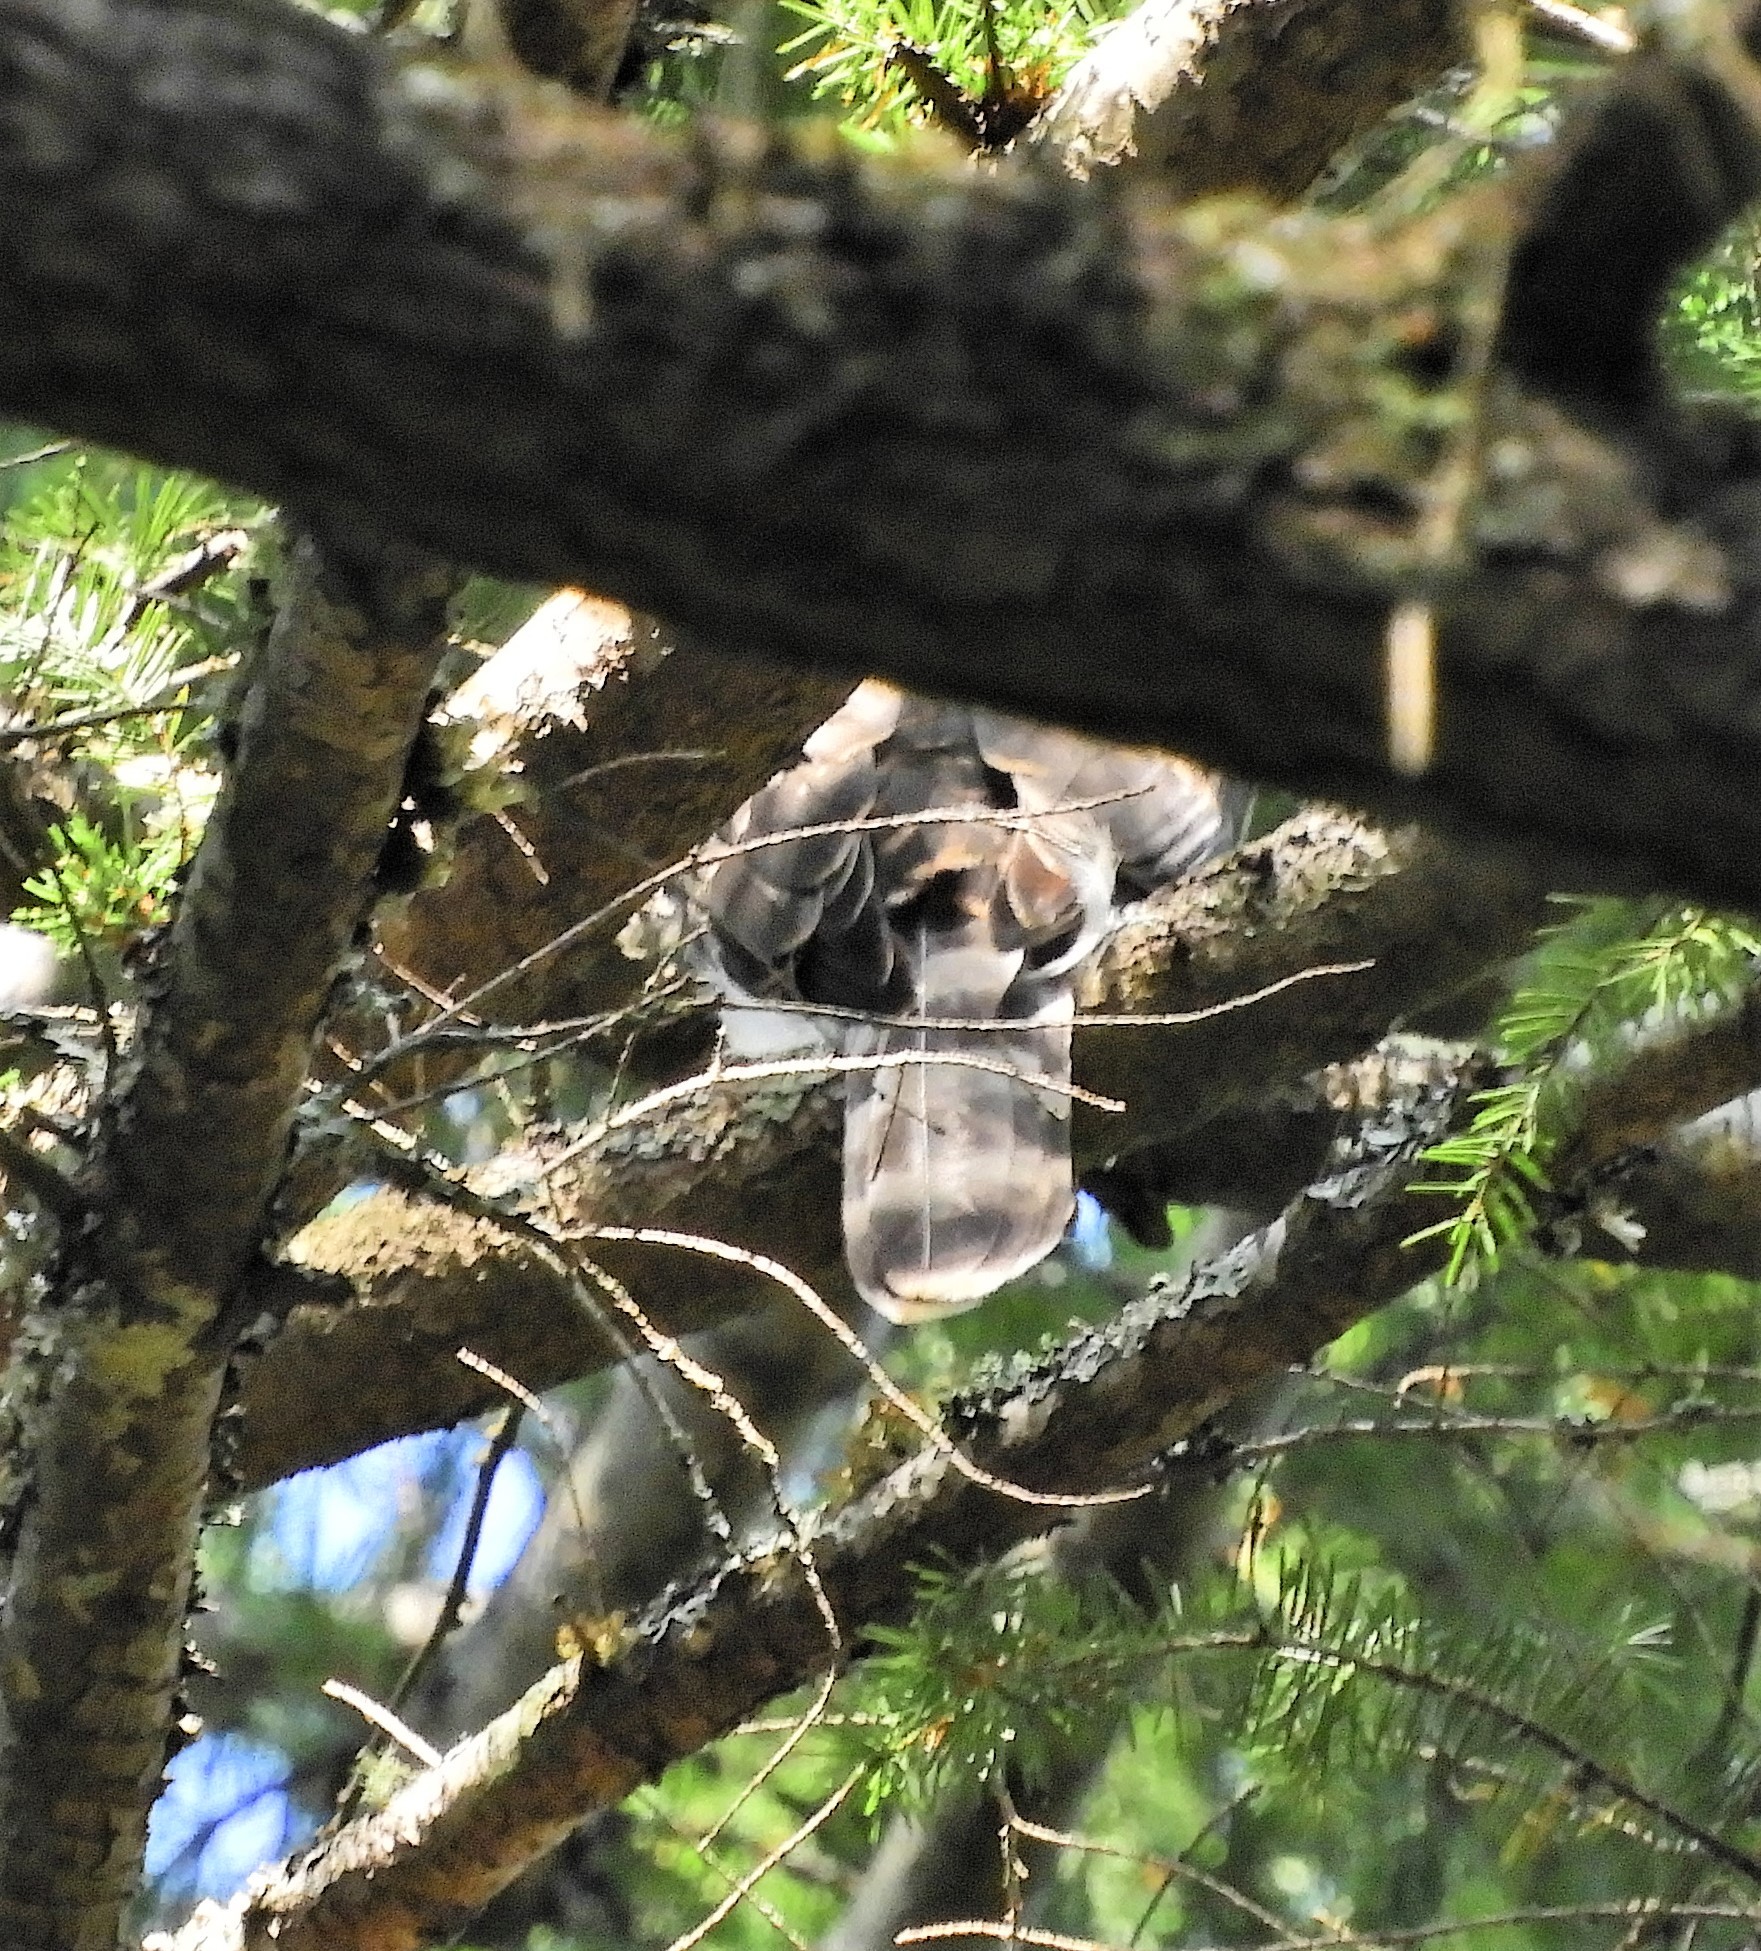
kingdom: Animalia
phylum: Chordata
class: Aves
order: Accipitriformes
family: Accipitridae
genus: Accipiter
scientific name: Accipiter cooperii
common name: Cooper's hawk
